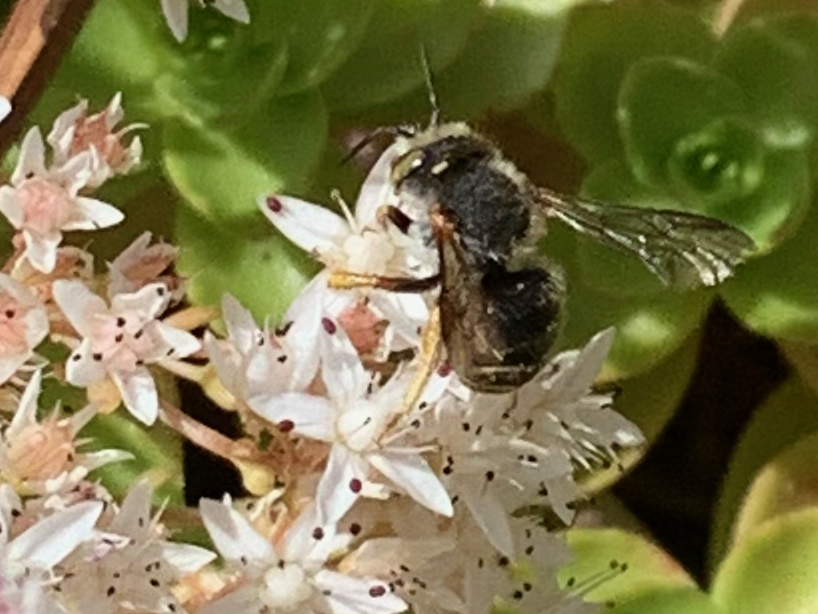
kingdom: Animalia
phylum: Arthropoda
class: Insecta
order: Hymenoptera
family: Megachilidae
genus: Anthidium
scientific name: Anthidium oblongatum
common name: Oblong wool carder bee
